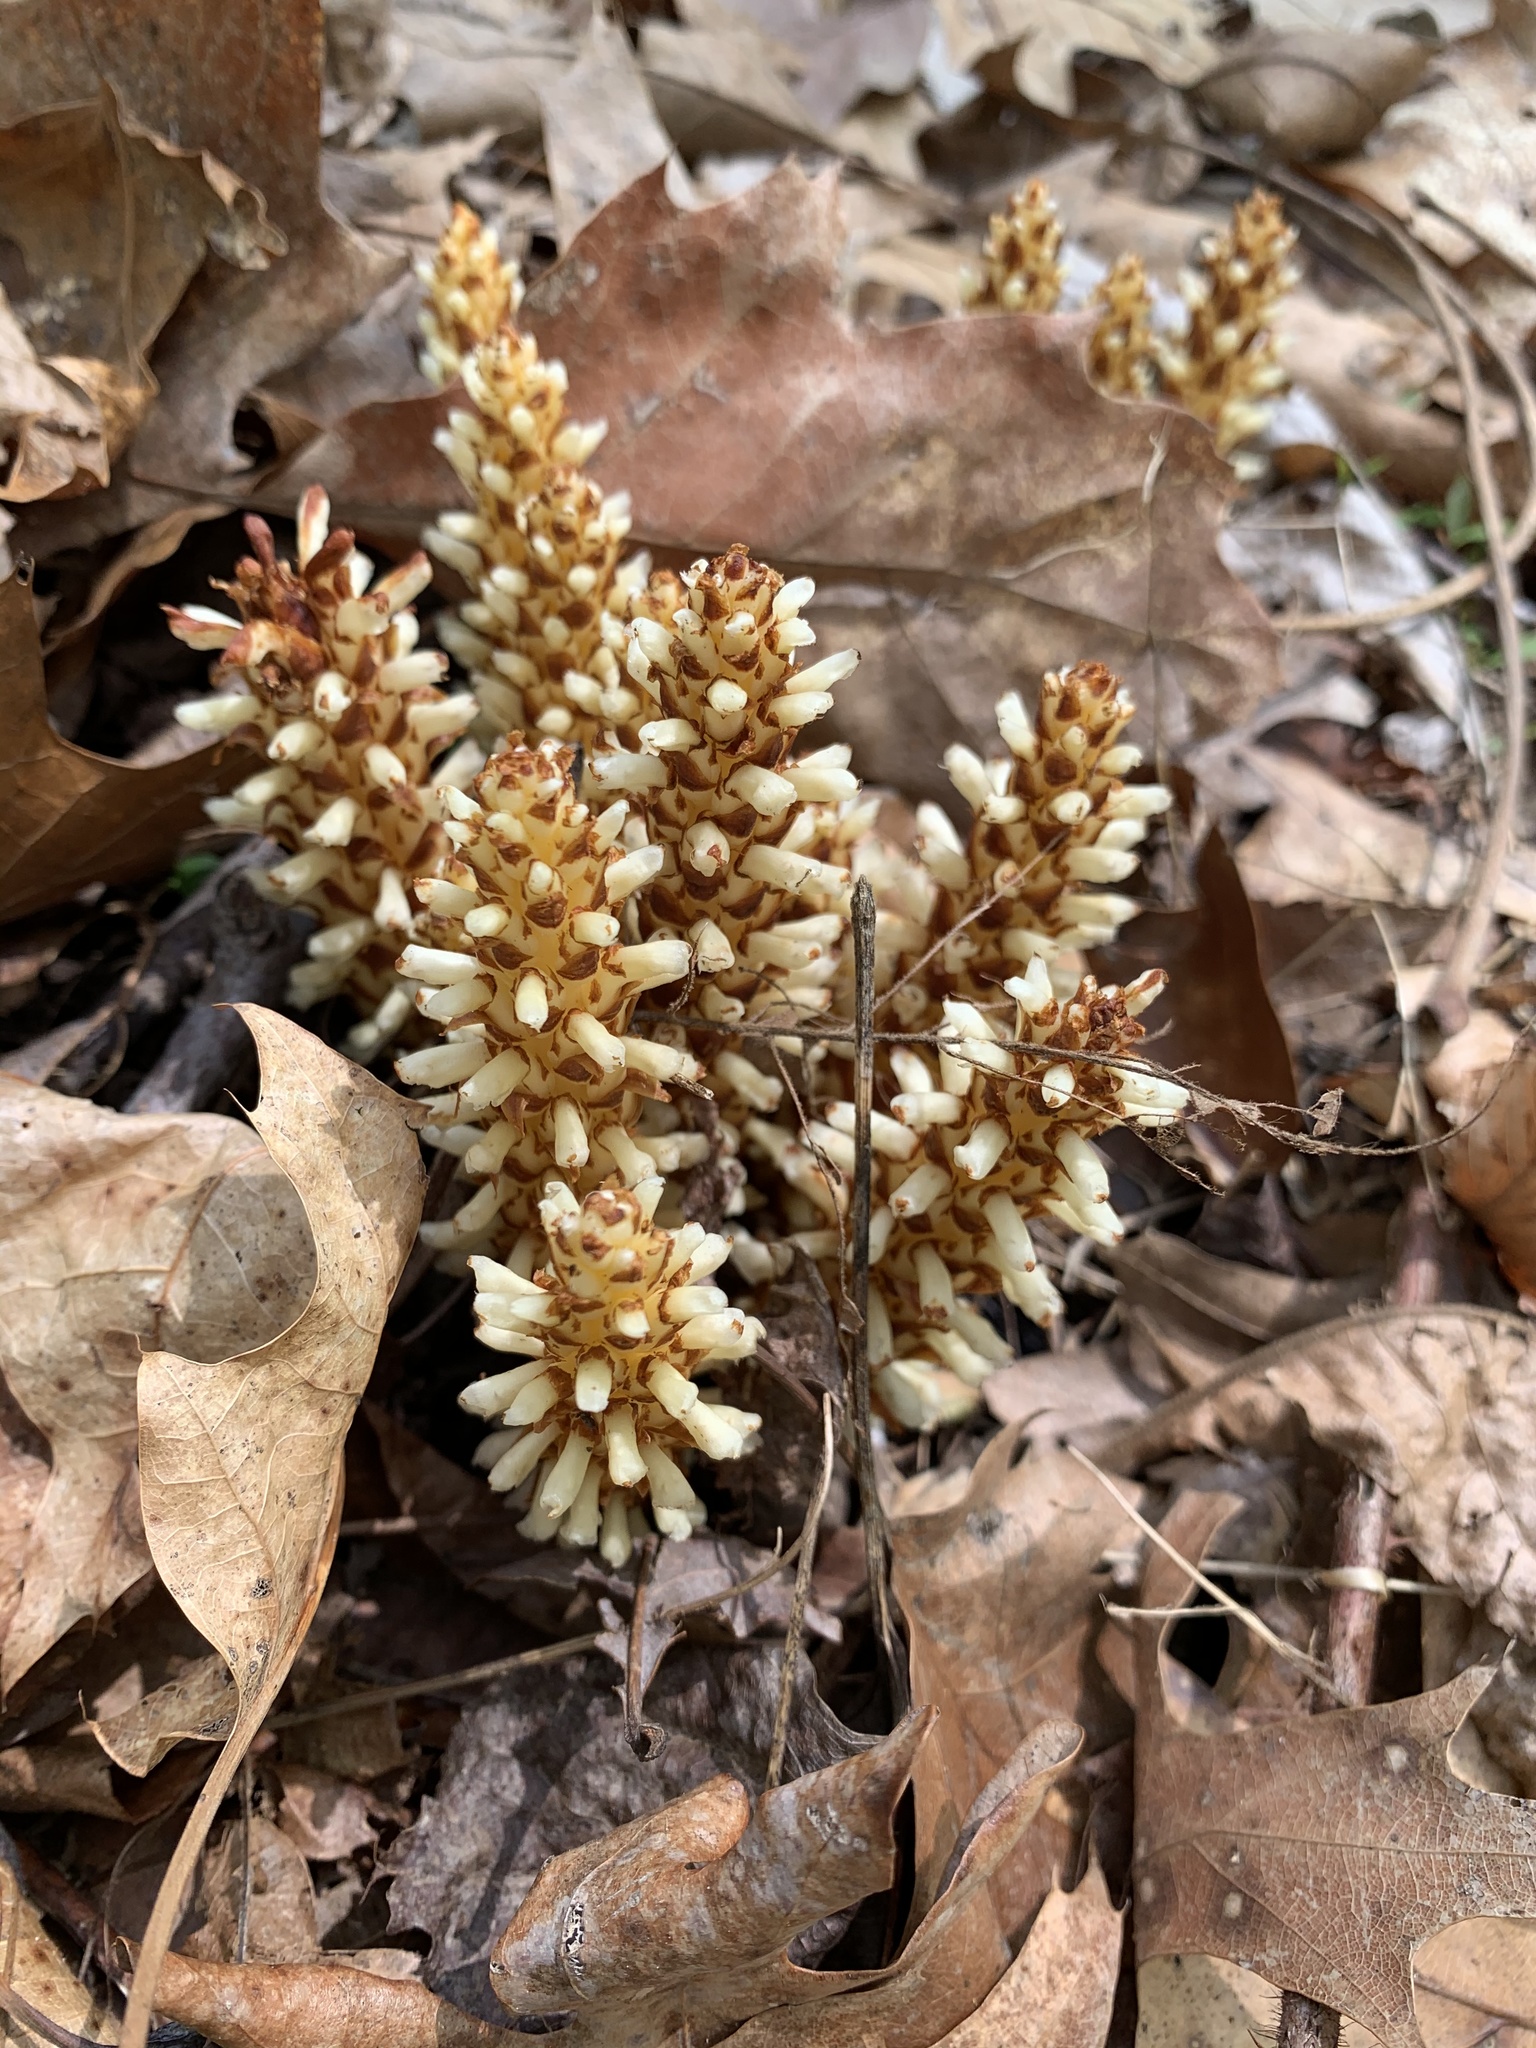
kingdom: Plantae
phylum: Tracheophyta
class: Magnoliopsida
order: Lamiales
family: Orobanchaceae
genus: Conopholis
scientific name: Conopholis americana
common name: American cancer-root
